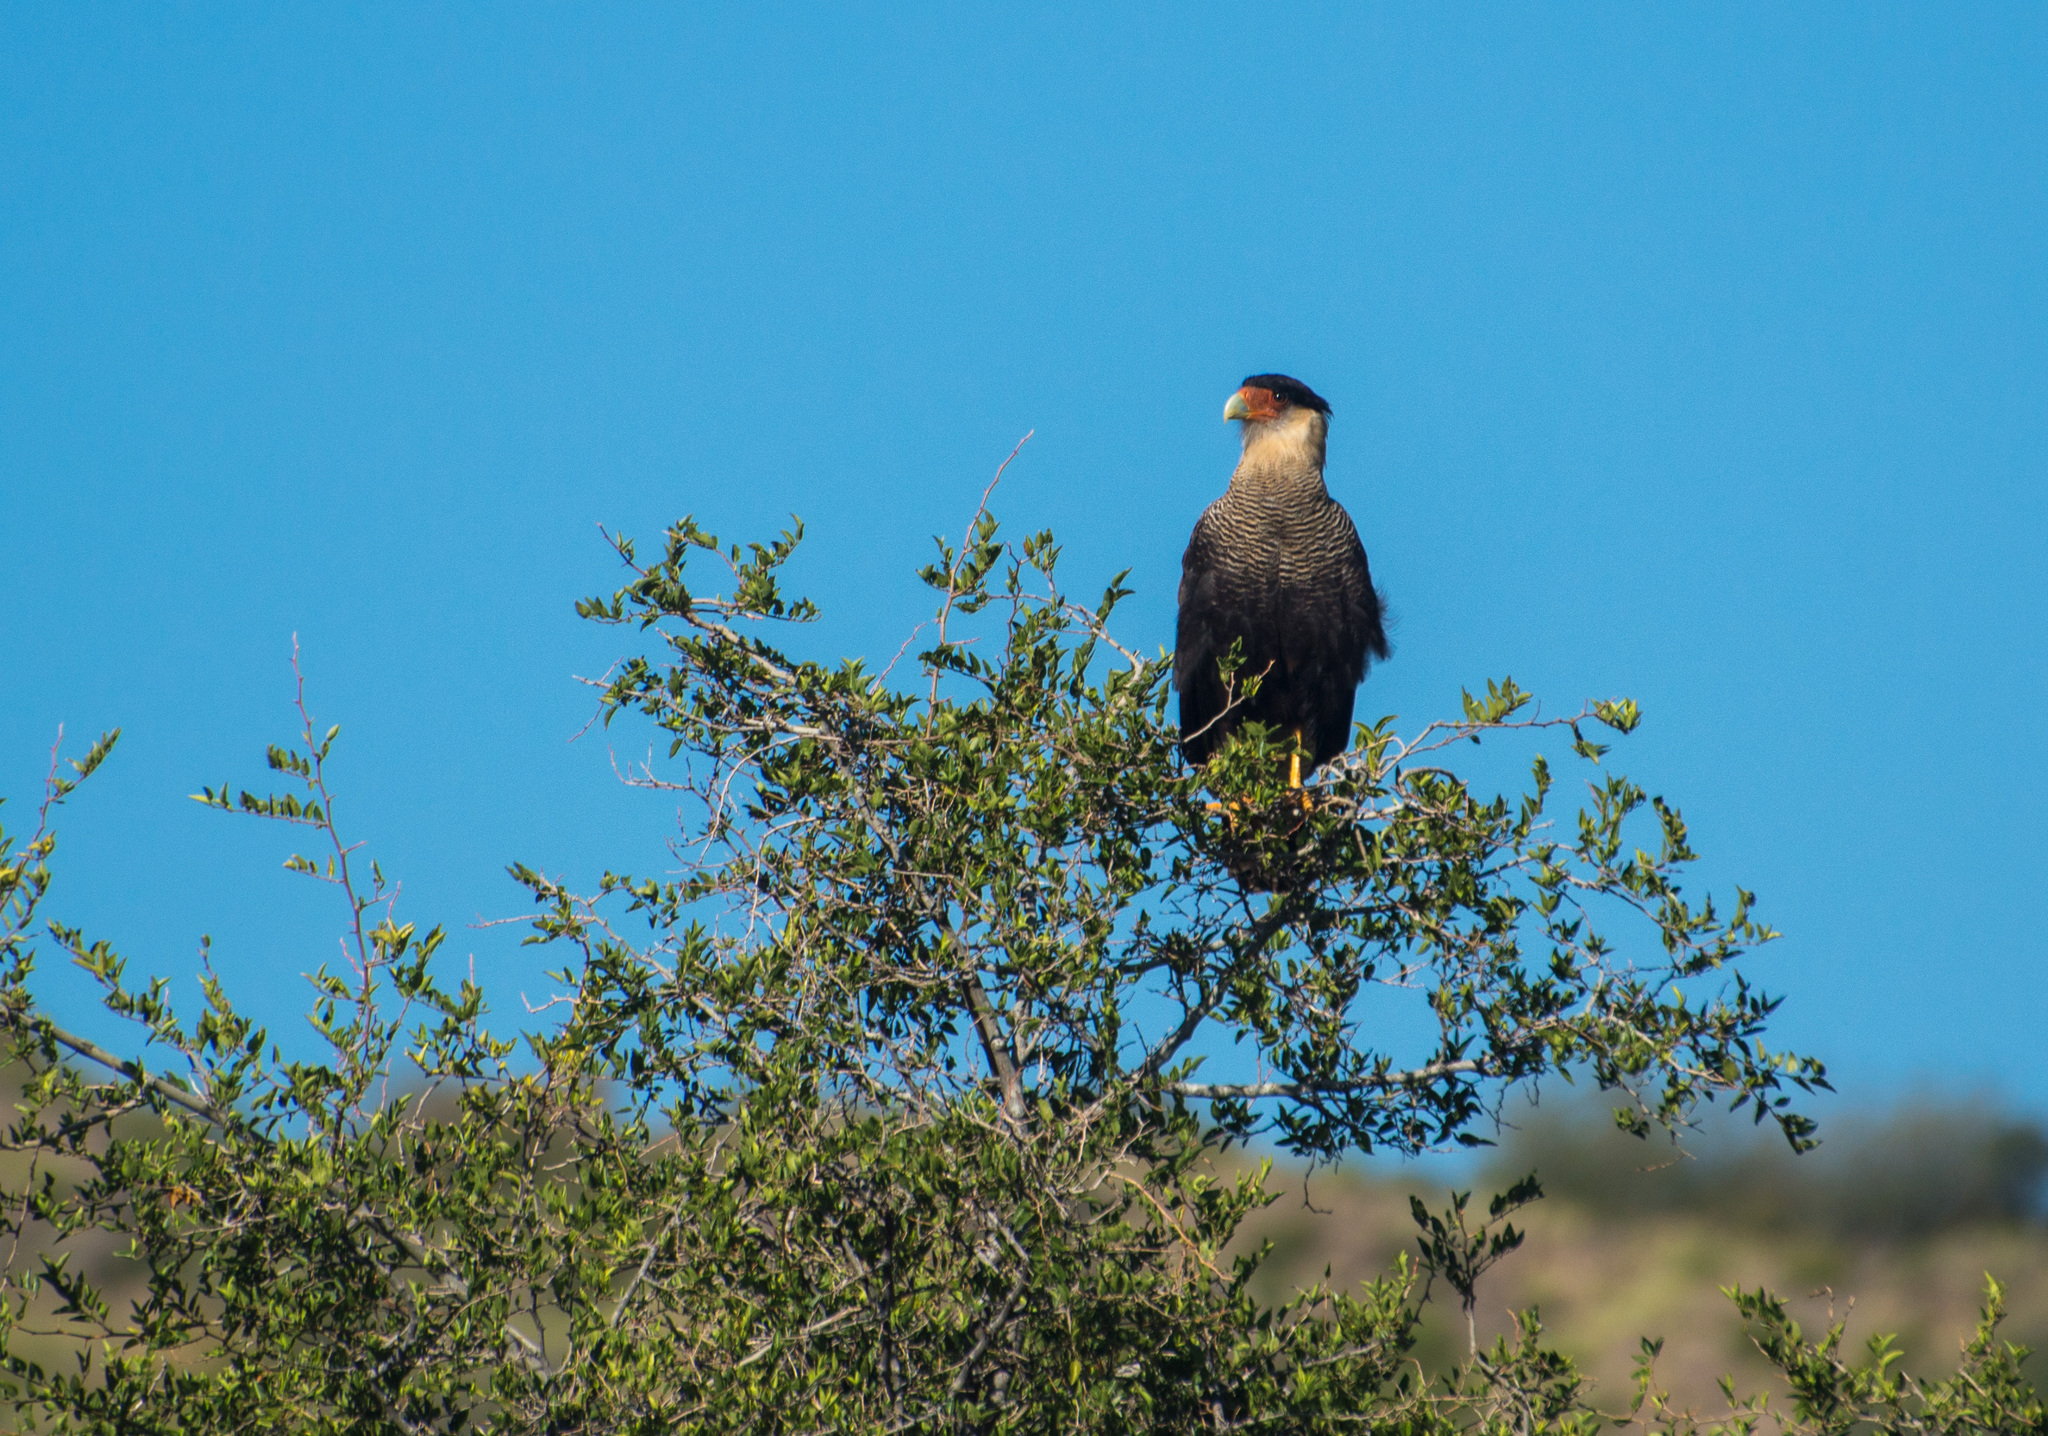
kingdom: Animalia
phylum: Chordata
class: Aves
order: Falconiformes
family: Falconidae
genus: Caracara
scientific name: Caracara plancus
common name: Southern caracara
